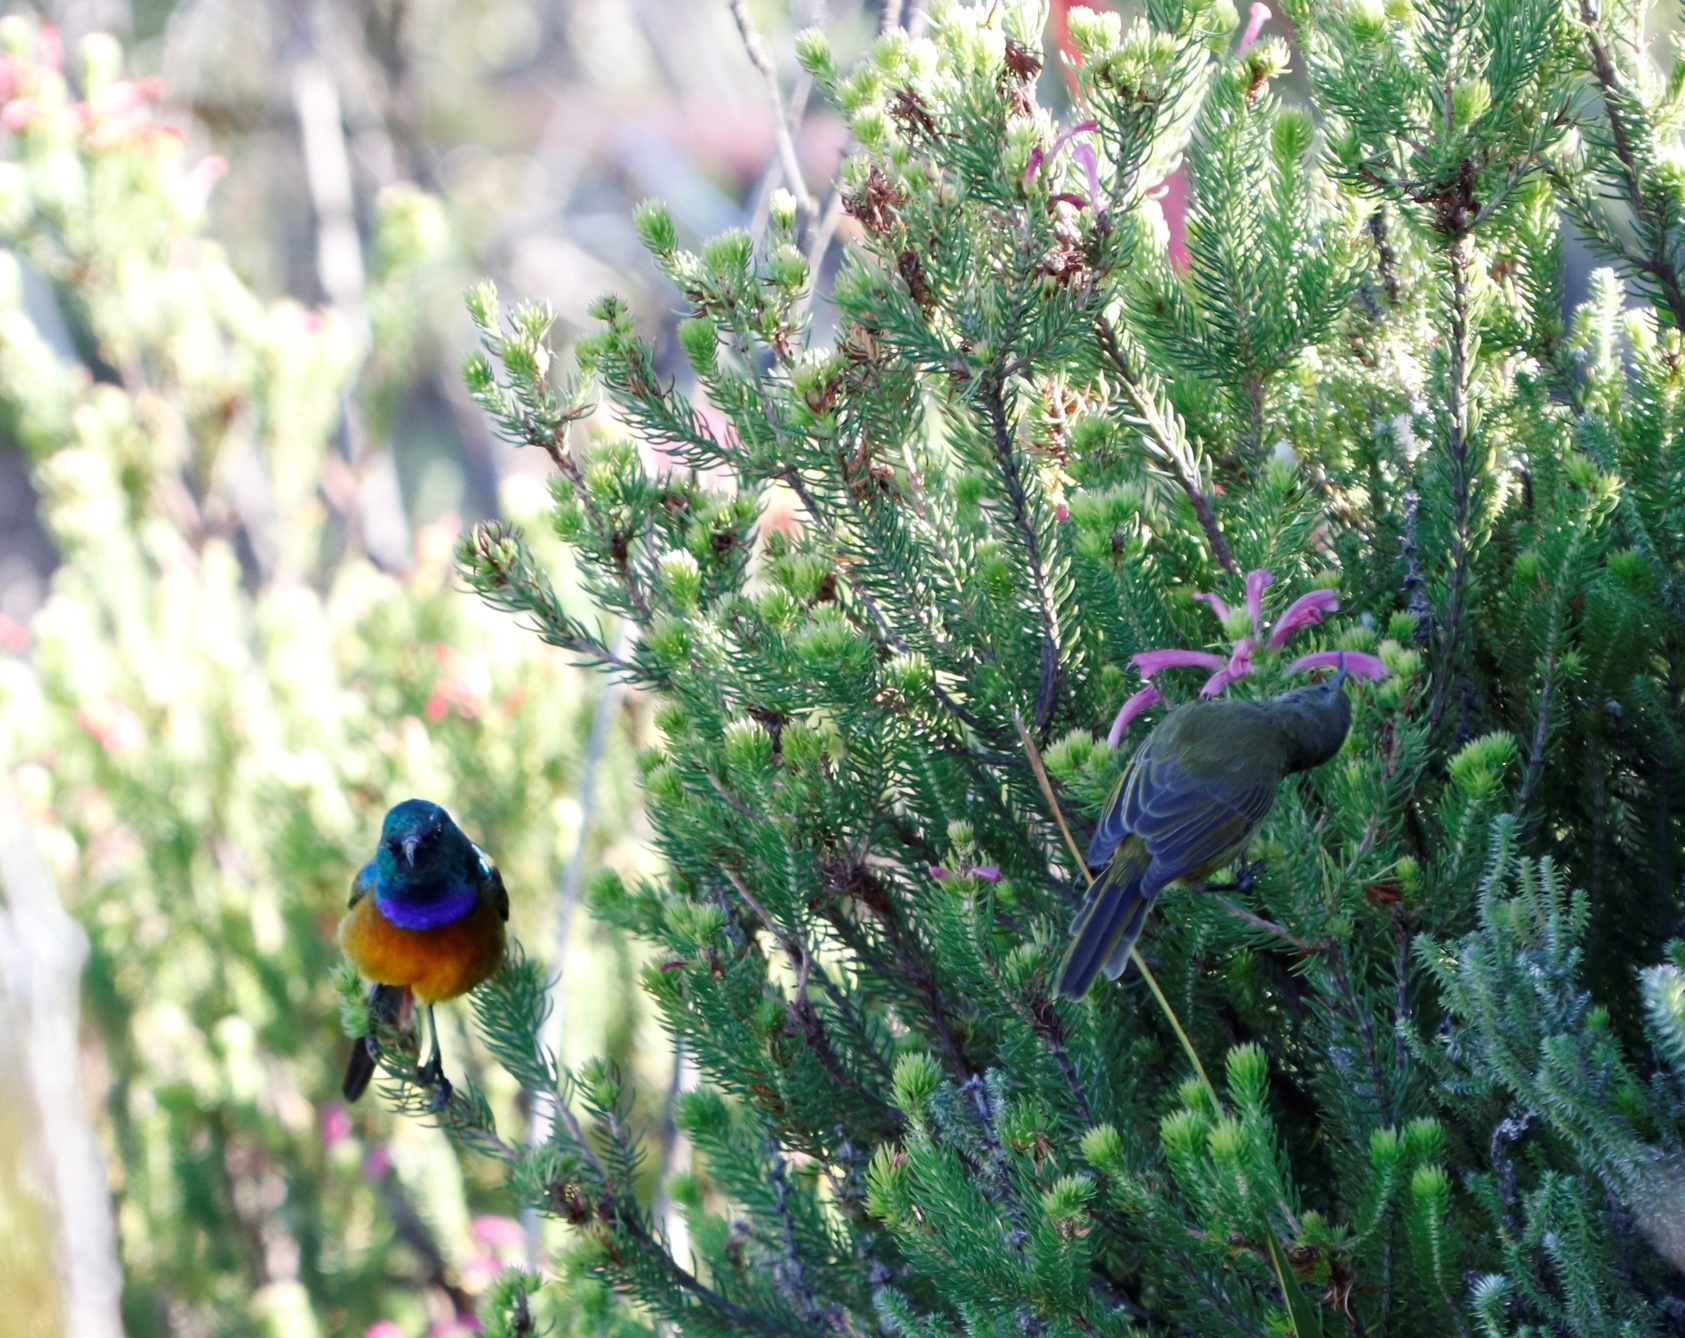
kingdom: Plantae
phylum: Tracheophyta
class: Magnoliopsida
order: Ericales
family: Ericaceae
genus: Erica
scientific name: Erica abietina
